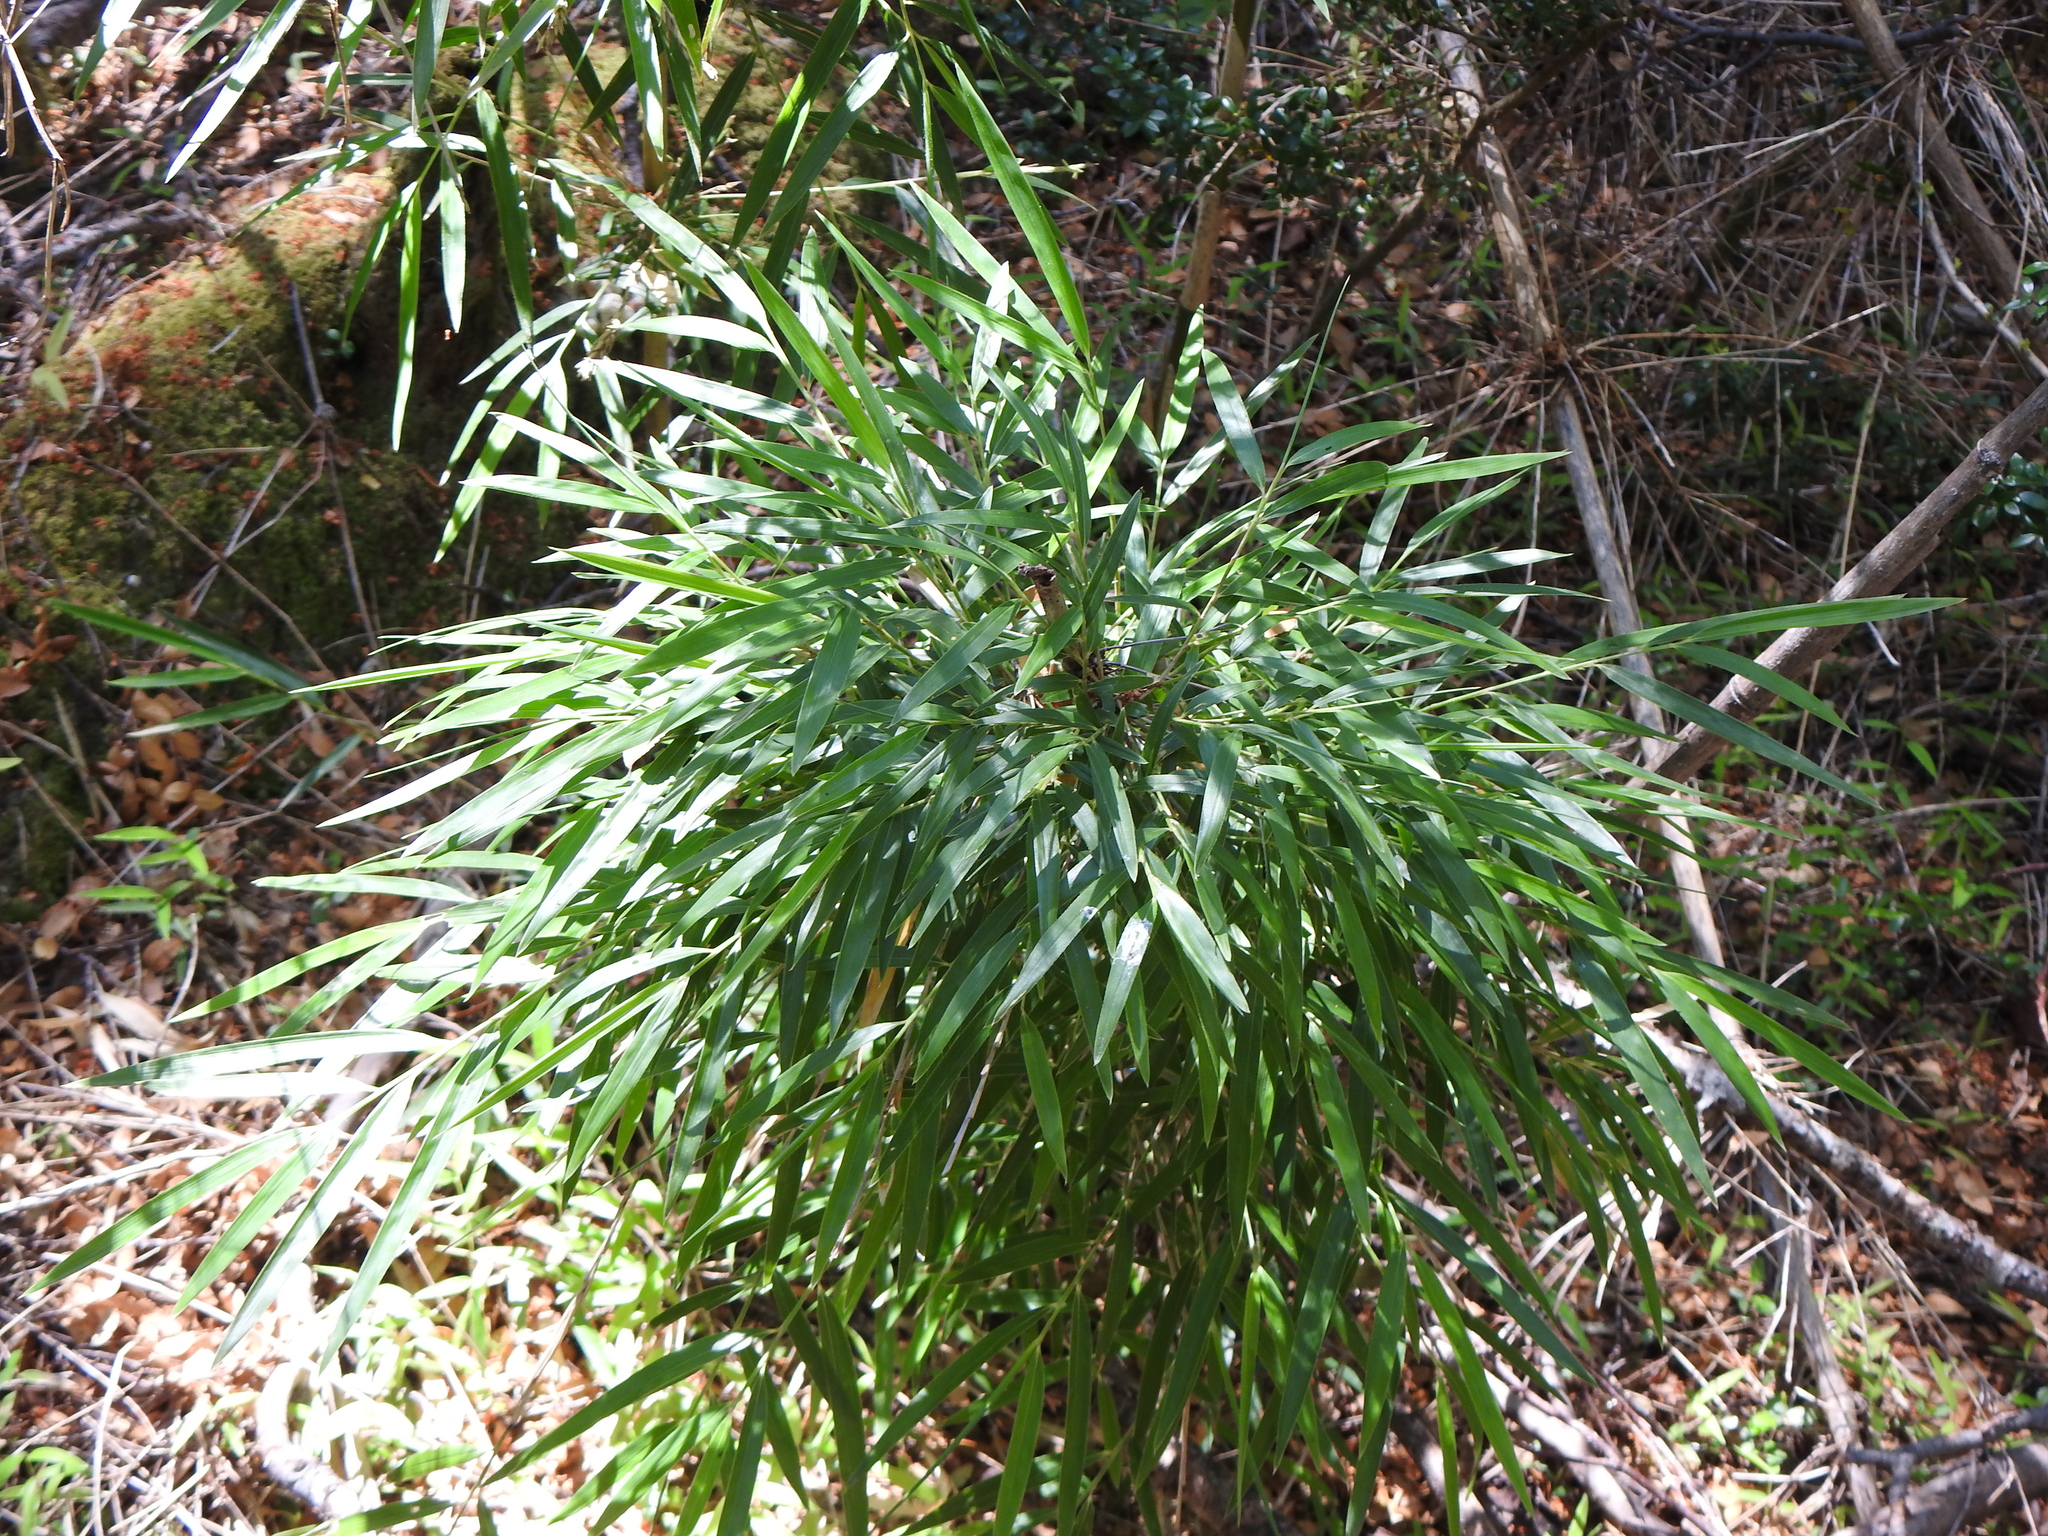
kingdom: Plantae
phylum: Tracheophyta
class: Liliopsida
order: Poales
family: Poaceae
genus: Chusquea
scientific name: Chusquea culeou
